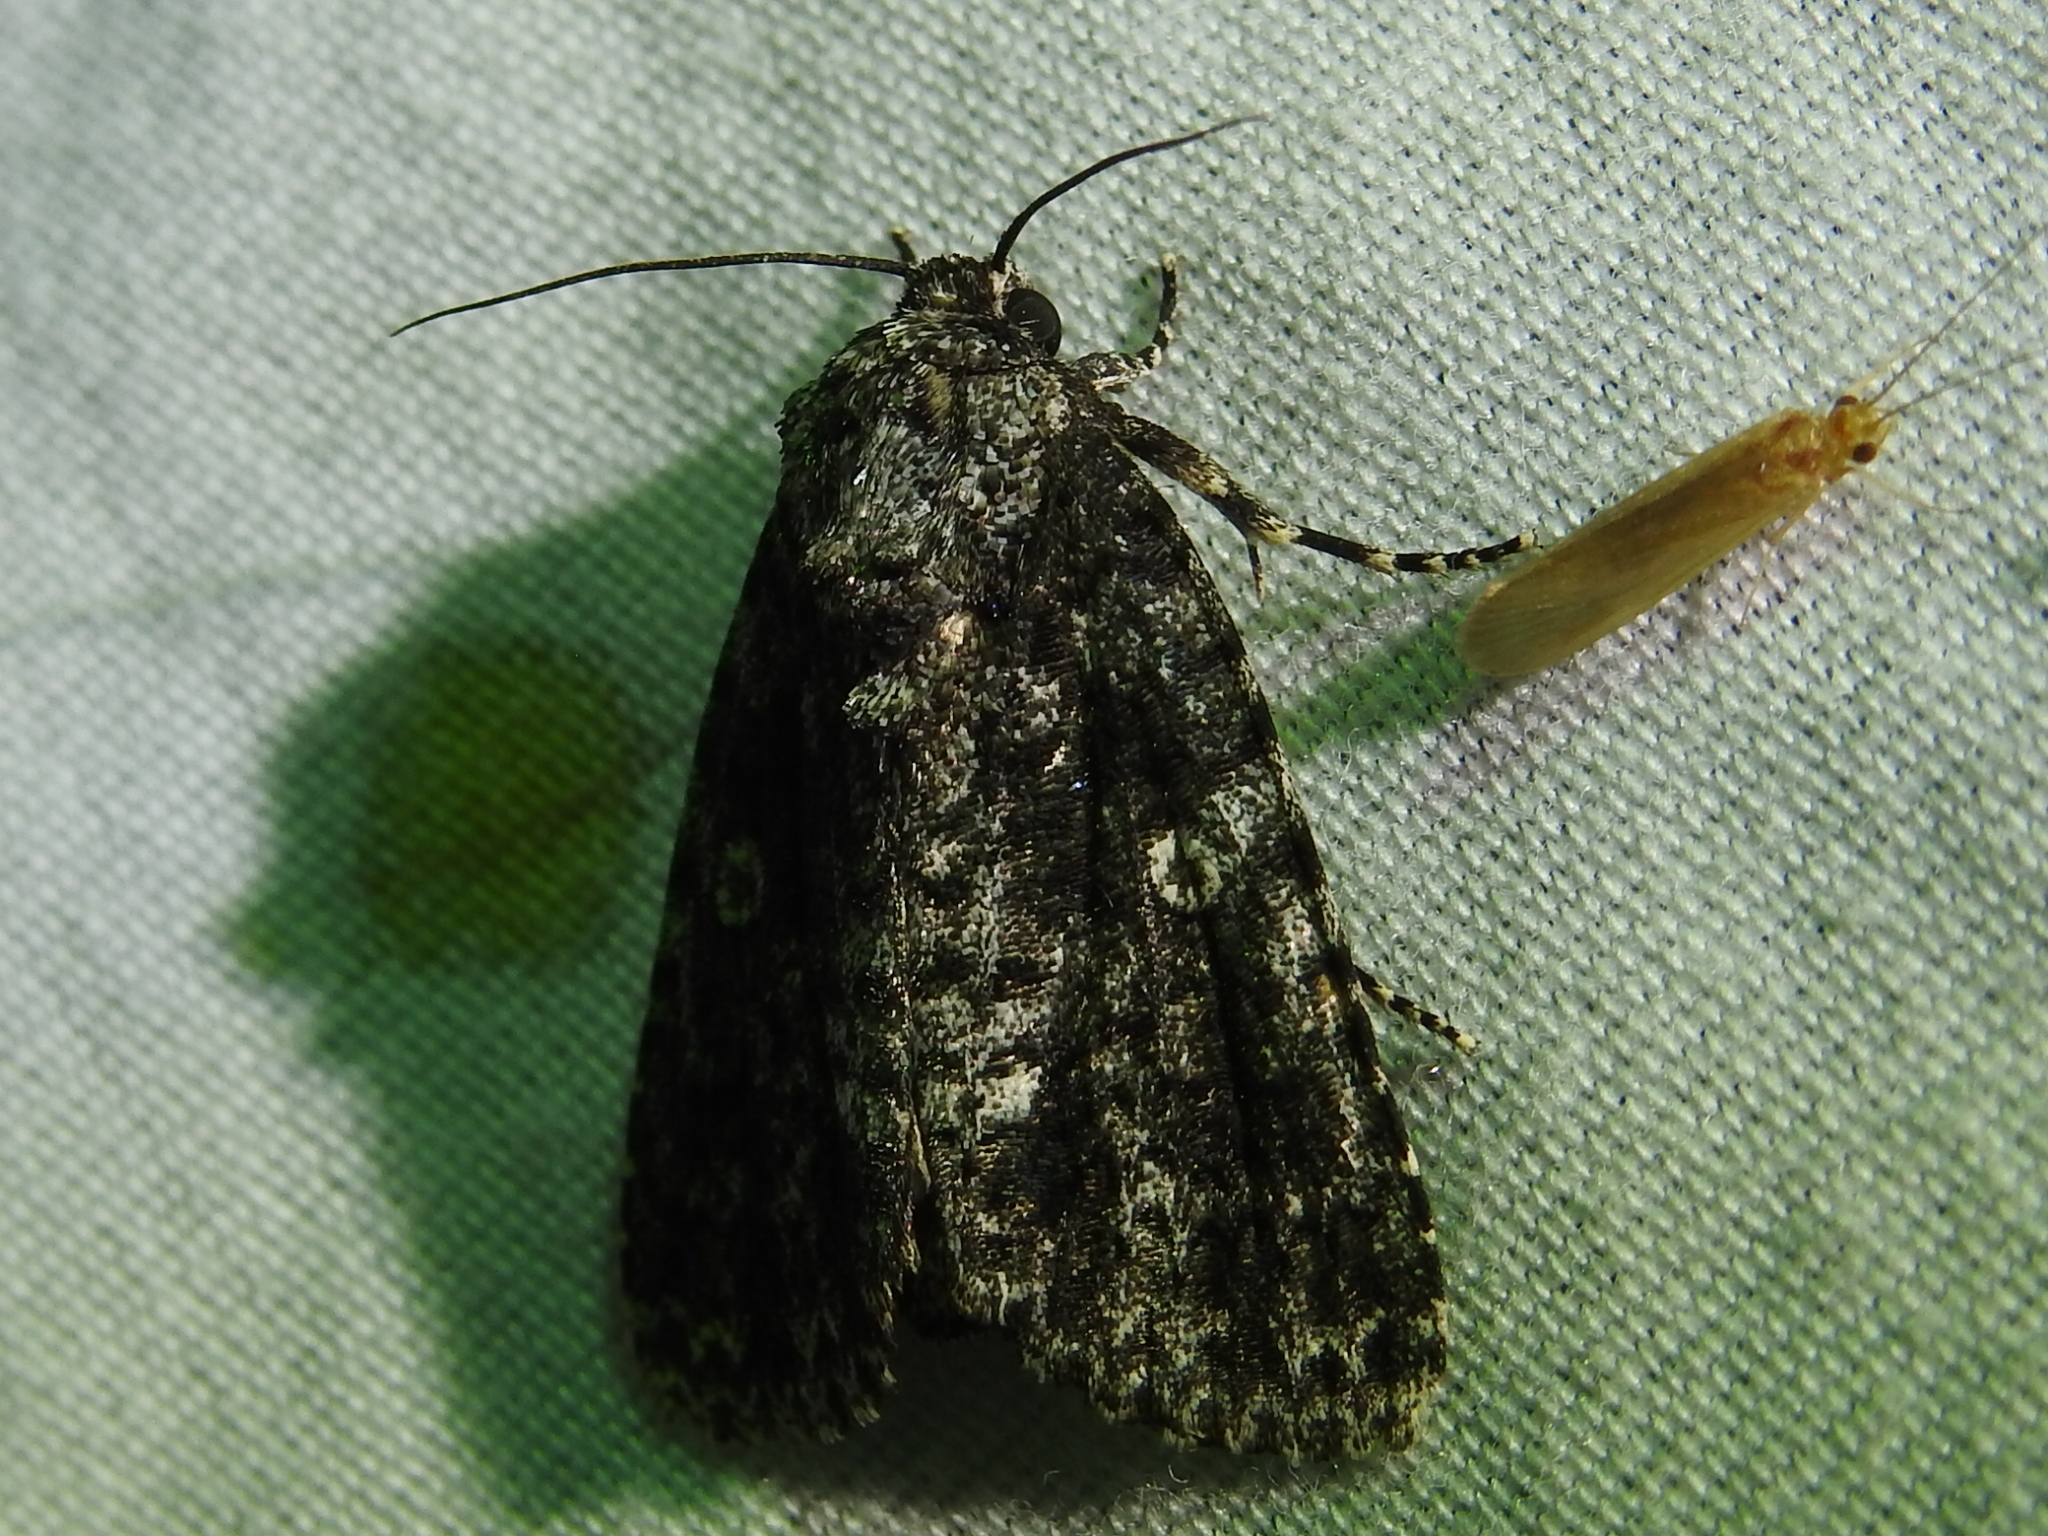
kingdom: Animalia
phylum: Arthropoda
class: Insecta
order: Lepidoptera
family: Noctuidae
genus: Acronicta
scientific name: Acronicta afflicta
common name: Afflicted dagger moth
